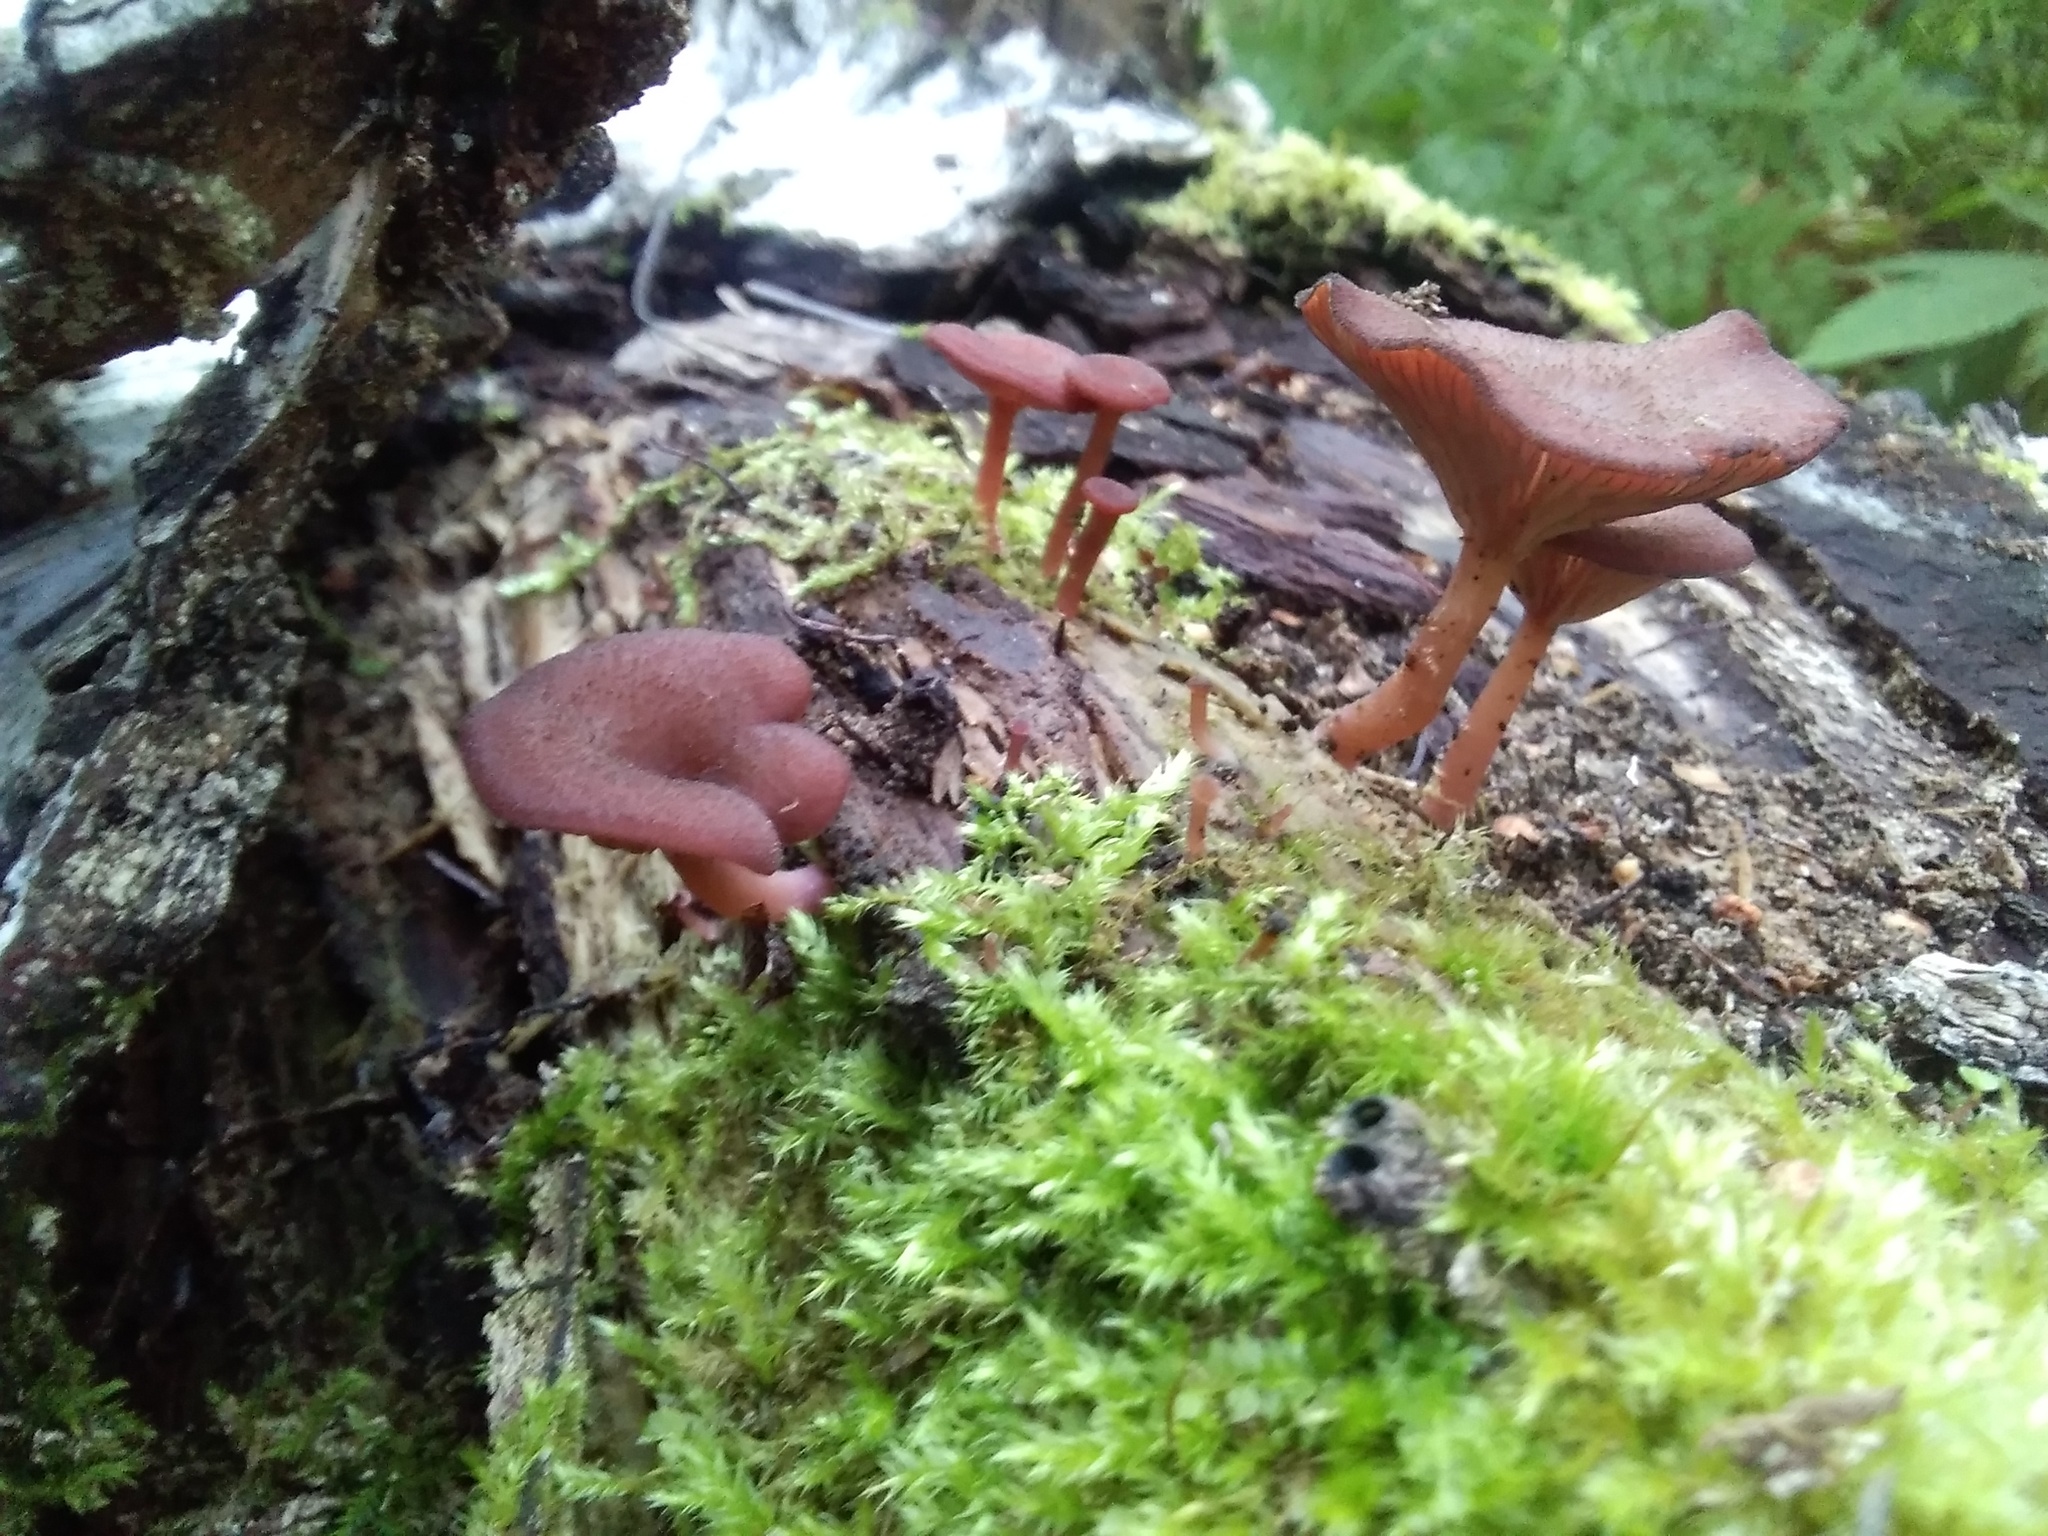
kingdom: Fungi
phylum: Basidiomycota
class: Agaricomycetes
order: Agaricales
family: Hygrophoraceae
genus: Arrhenia
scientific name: Arrhenia discorosea
